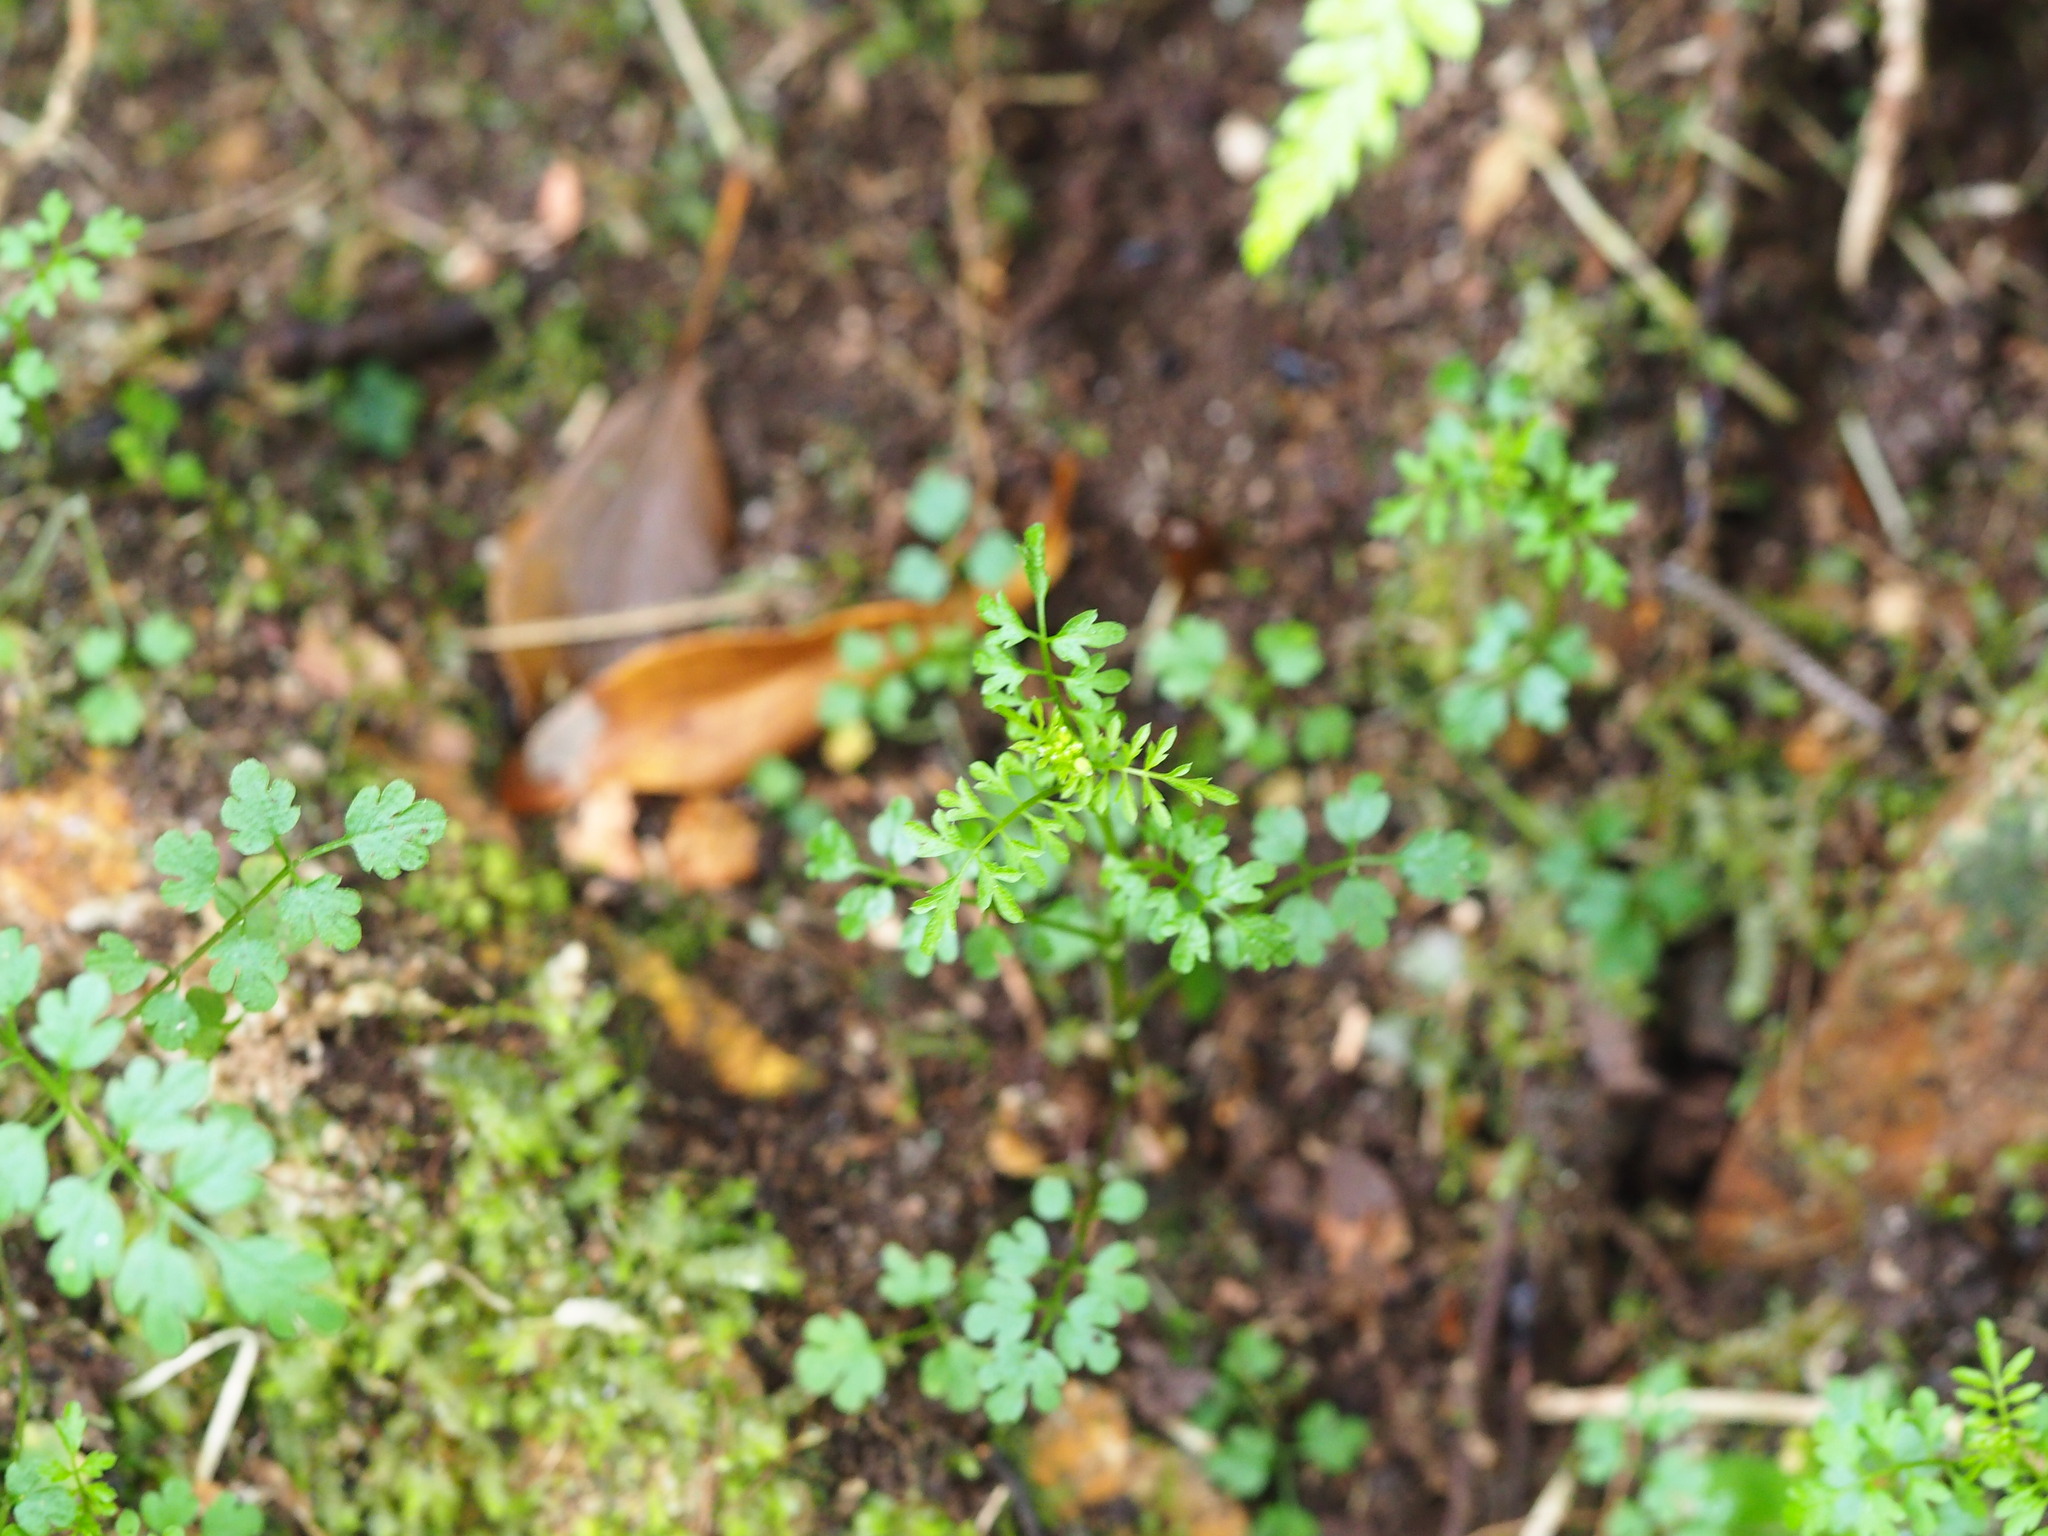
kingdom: Plantae
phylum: Tracheophyta
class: Magnoliopsida
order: Brassicales
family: Brassicaceae
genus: Cardamine
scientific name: Cardamine impatiens
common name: Narrow-leaved bitter-cress
